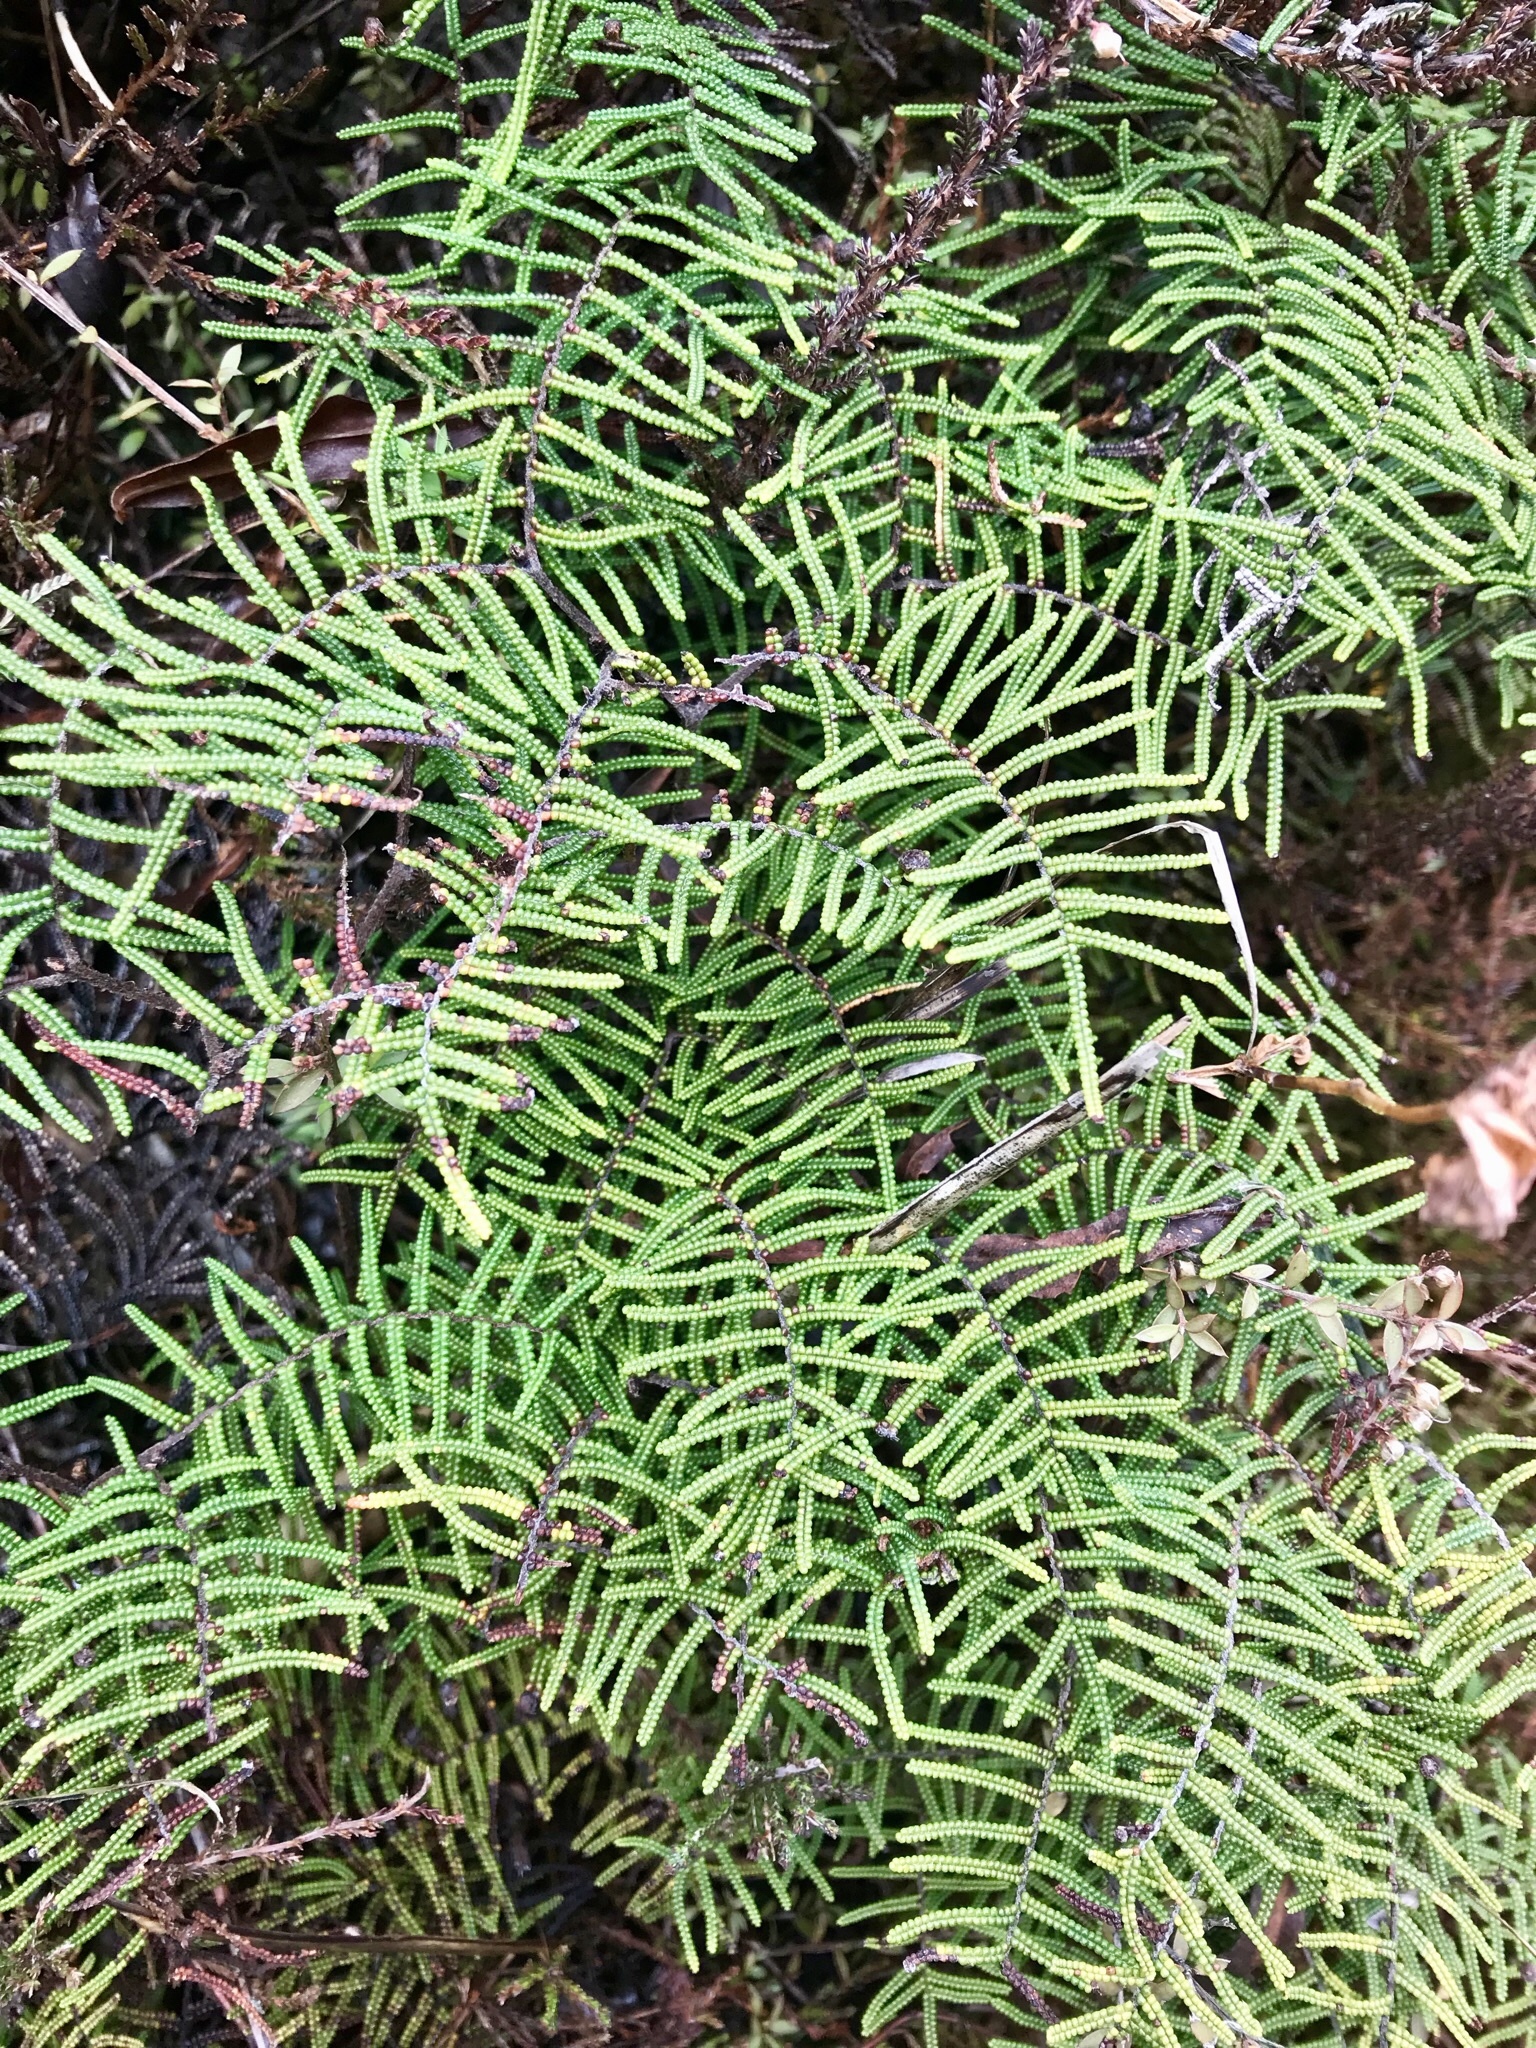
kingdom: Plantae
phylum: Tracheophyta
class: Polypodiopsida
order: Gleicheniales
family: Gleicheniaceae
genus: Gleichenia
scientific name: Gleichenia alpina
